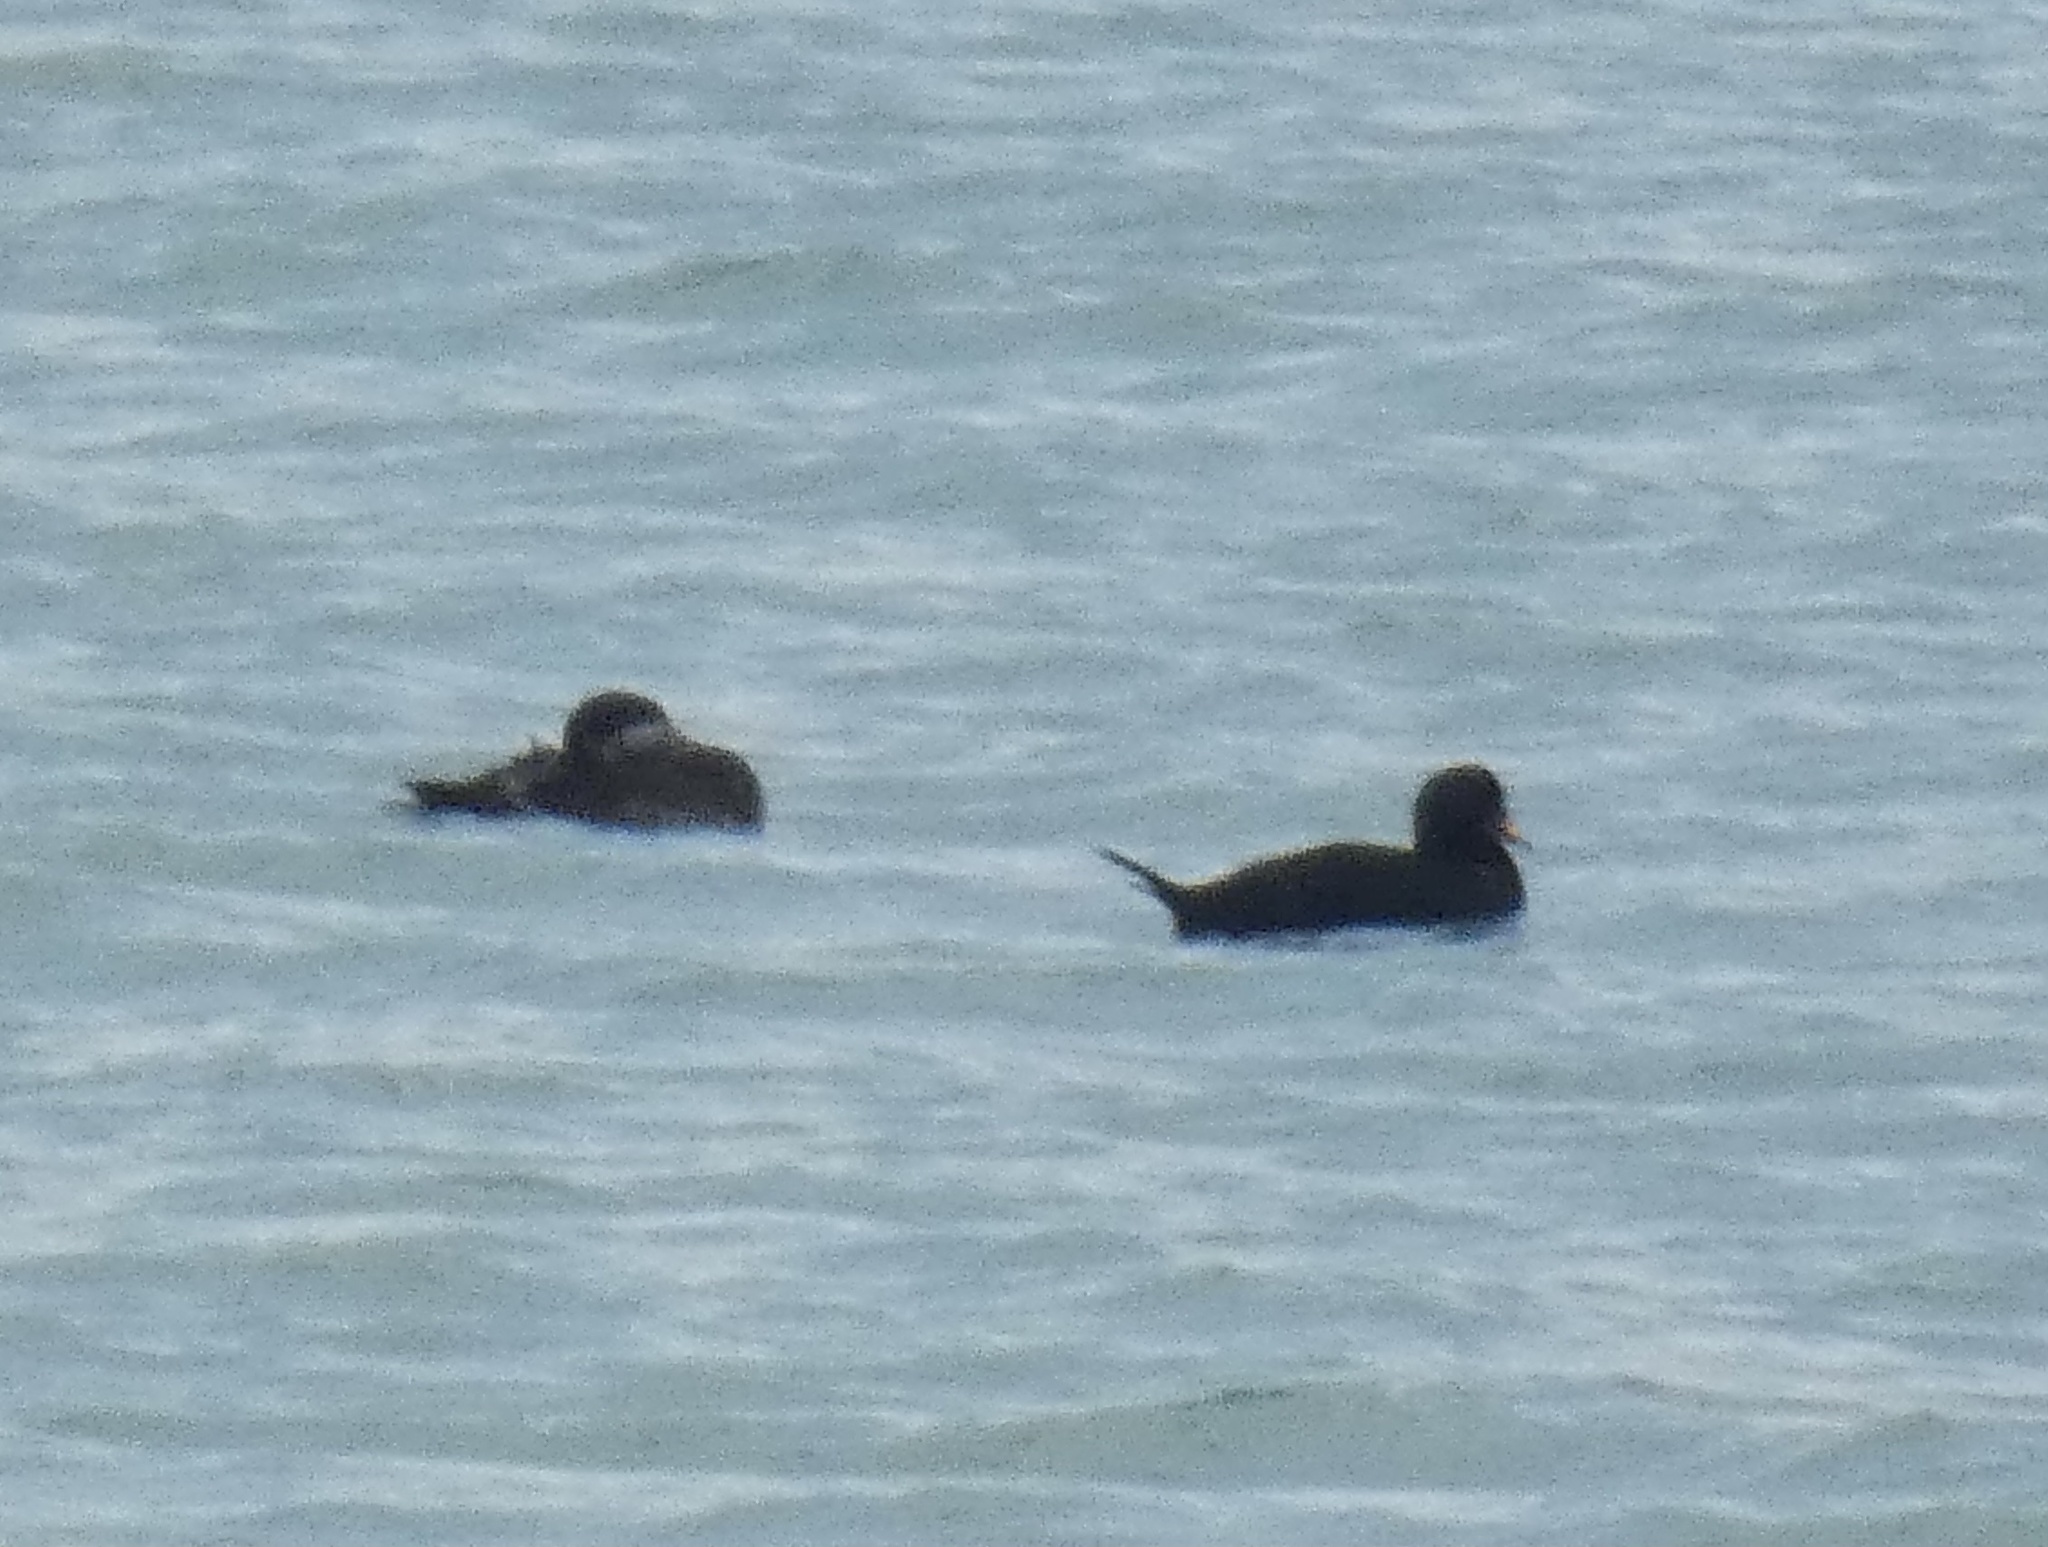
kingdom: Animalia
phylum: Chordata
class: Aves
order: Anseriformes
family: Anatidae
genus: Melanitta
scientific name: Melanitta nigra
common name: Common scoter
